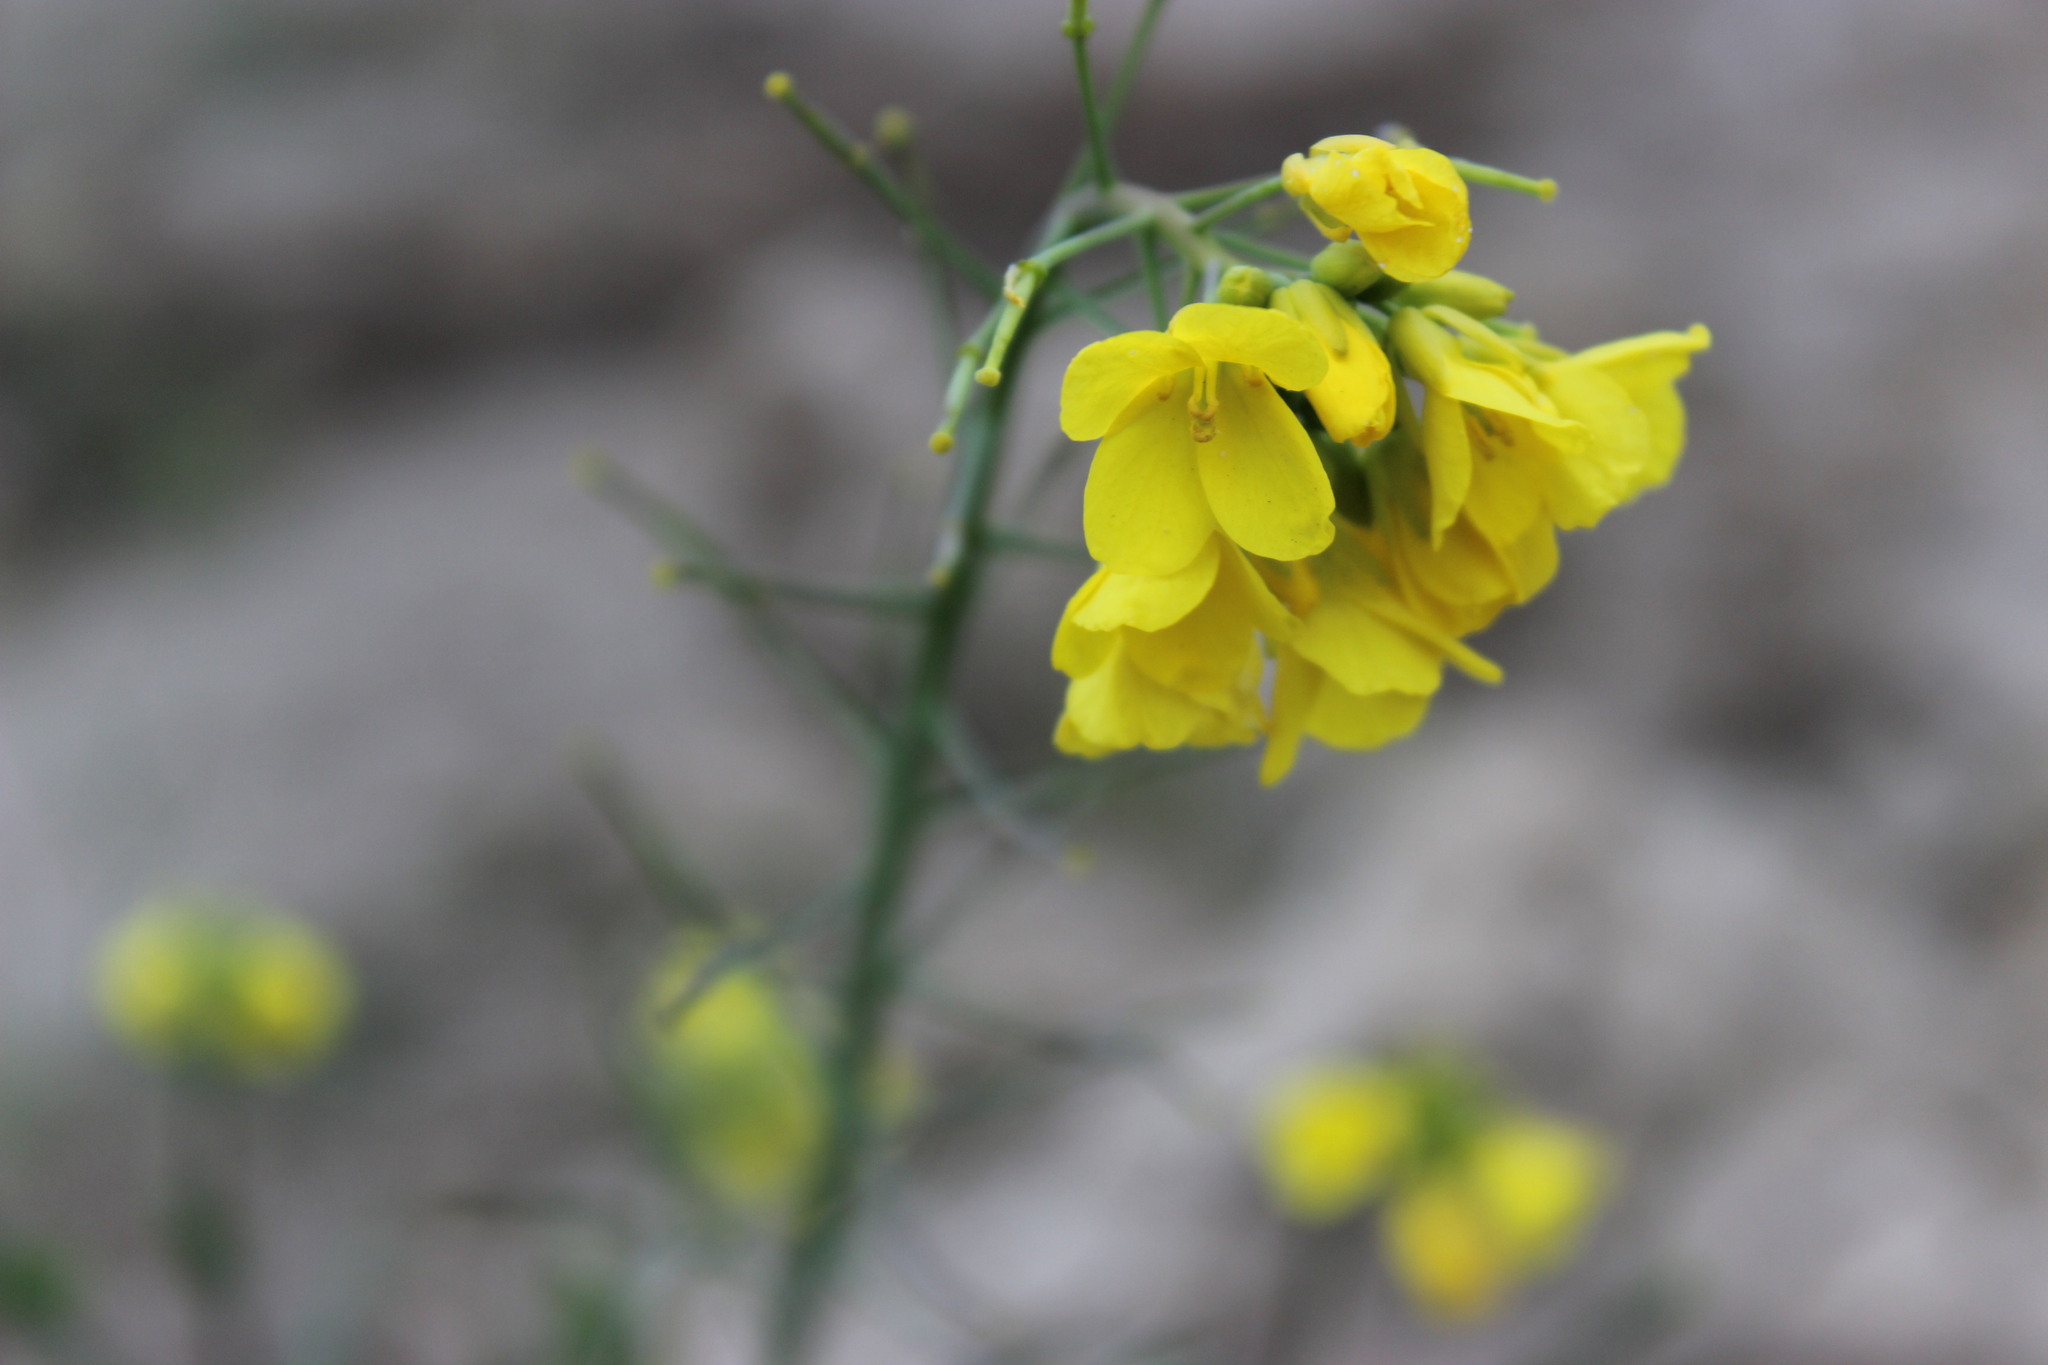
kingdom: Plantae
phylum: Tracheophyta
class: Magnoliopsida
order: Brassicales
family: Brassicaceae
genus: Brassica
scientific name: Brassica rapa
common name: Field mustard
